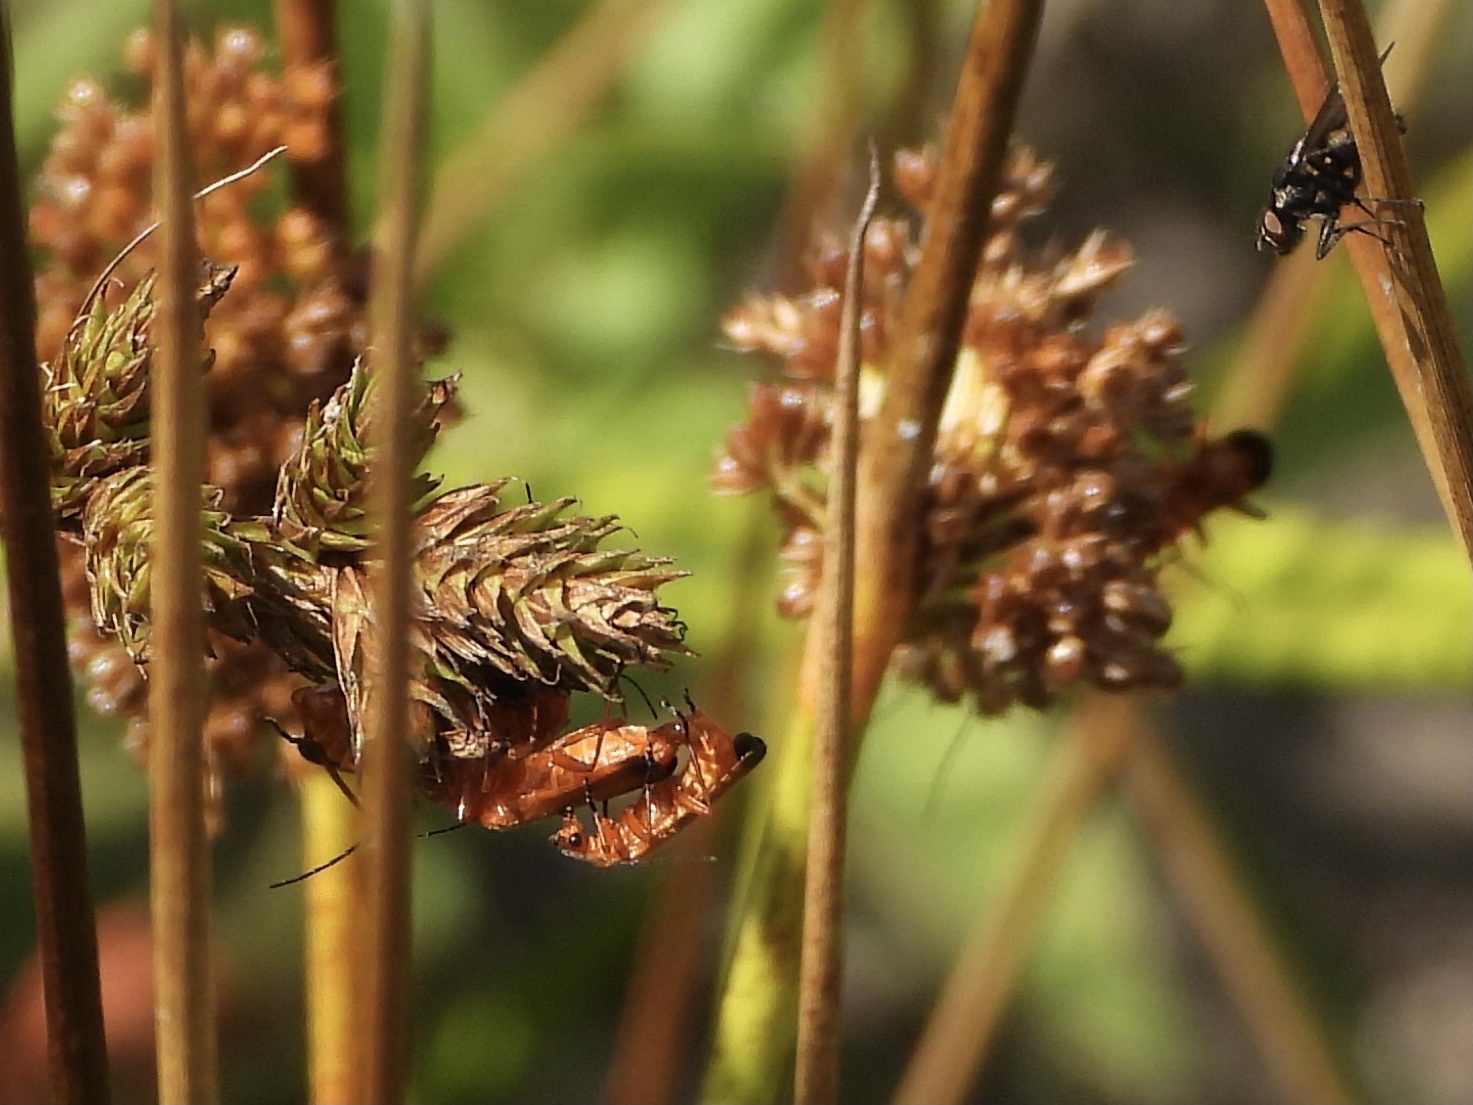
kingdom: Animalia
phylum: Arthropoda
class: Insecta
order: Coleoptera
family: Cantharidae
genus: Rhagonycha
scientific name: Rhagonycha fulva
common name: Common red soldier beetle
